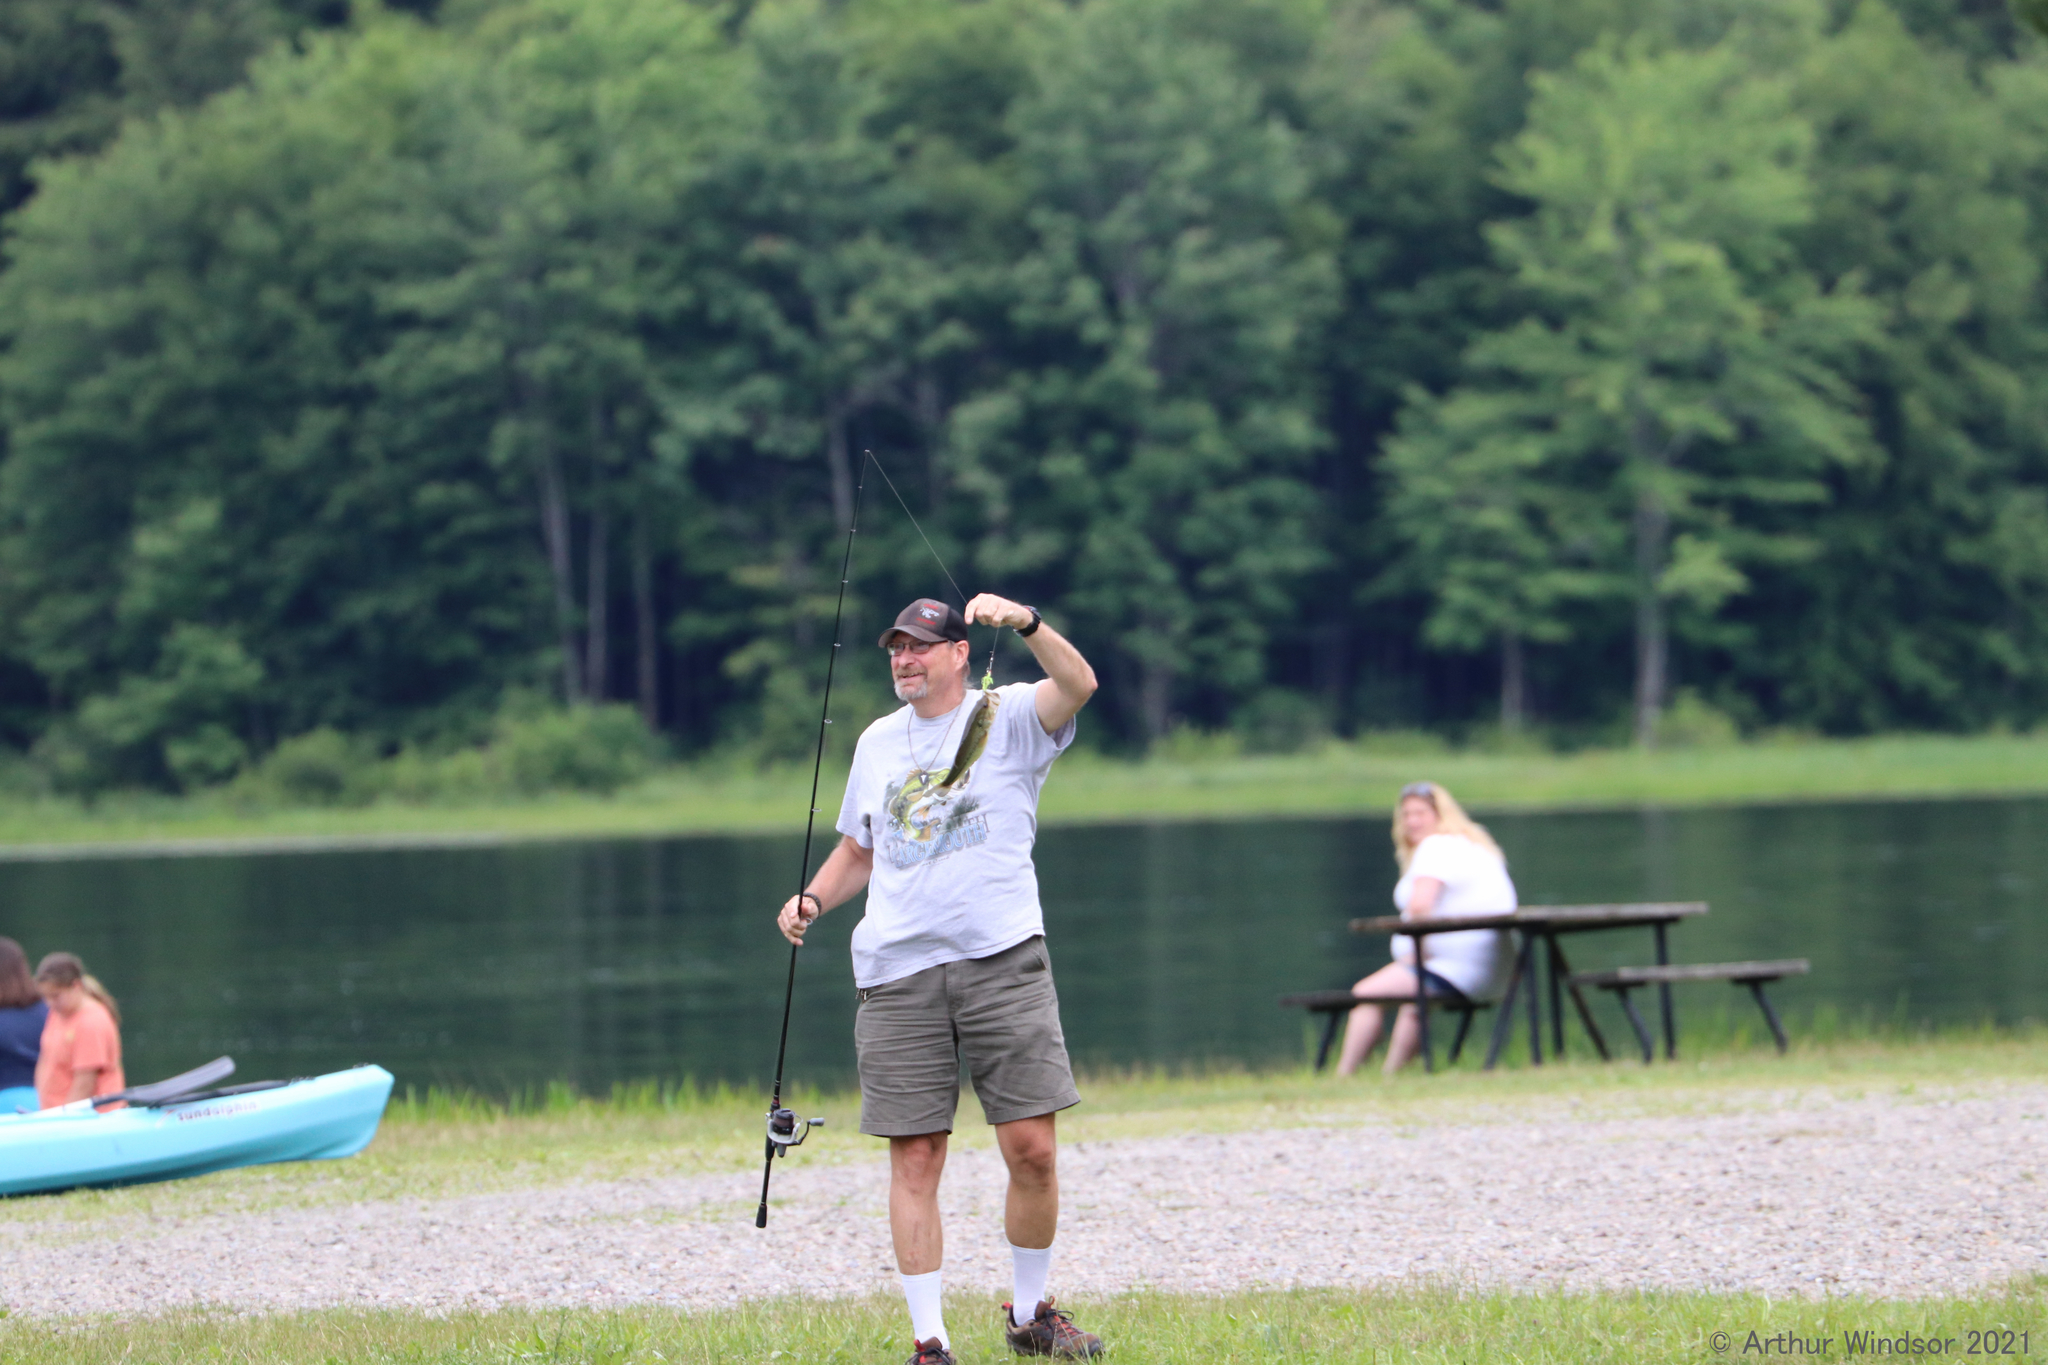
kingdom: Animalia
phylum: Chordata
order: Perciformes
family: Centrarchidae
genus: Micropterus
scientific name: Micropterus
